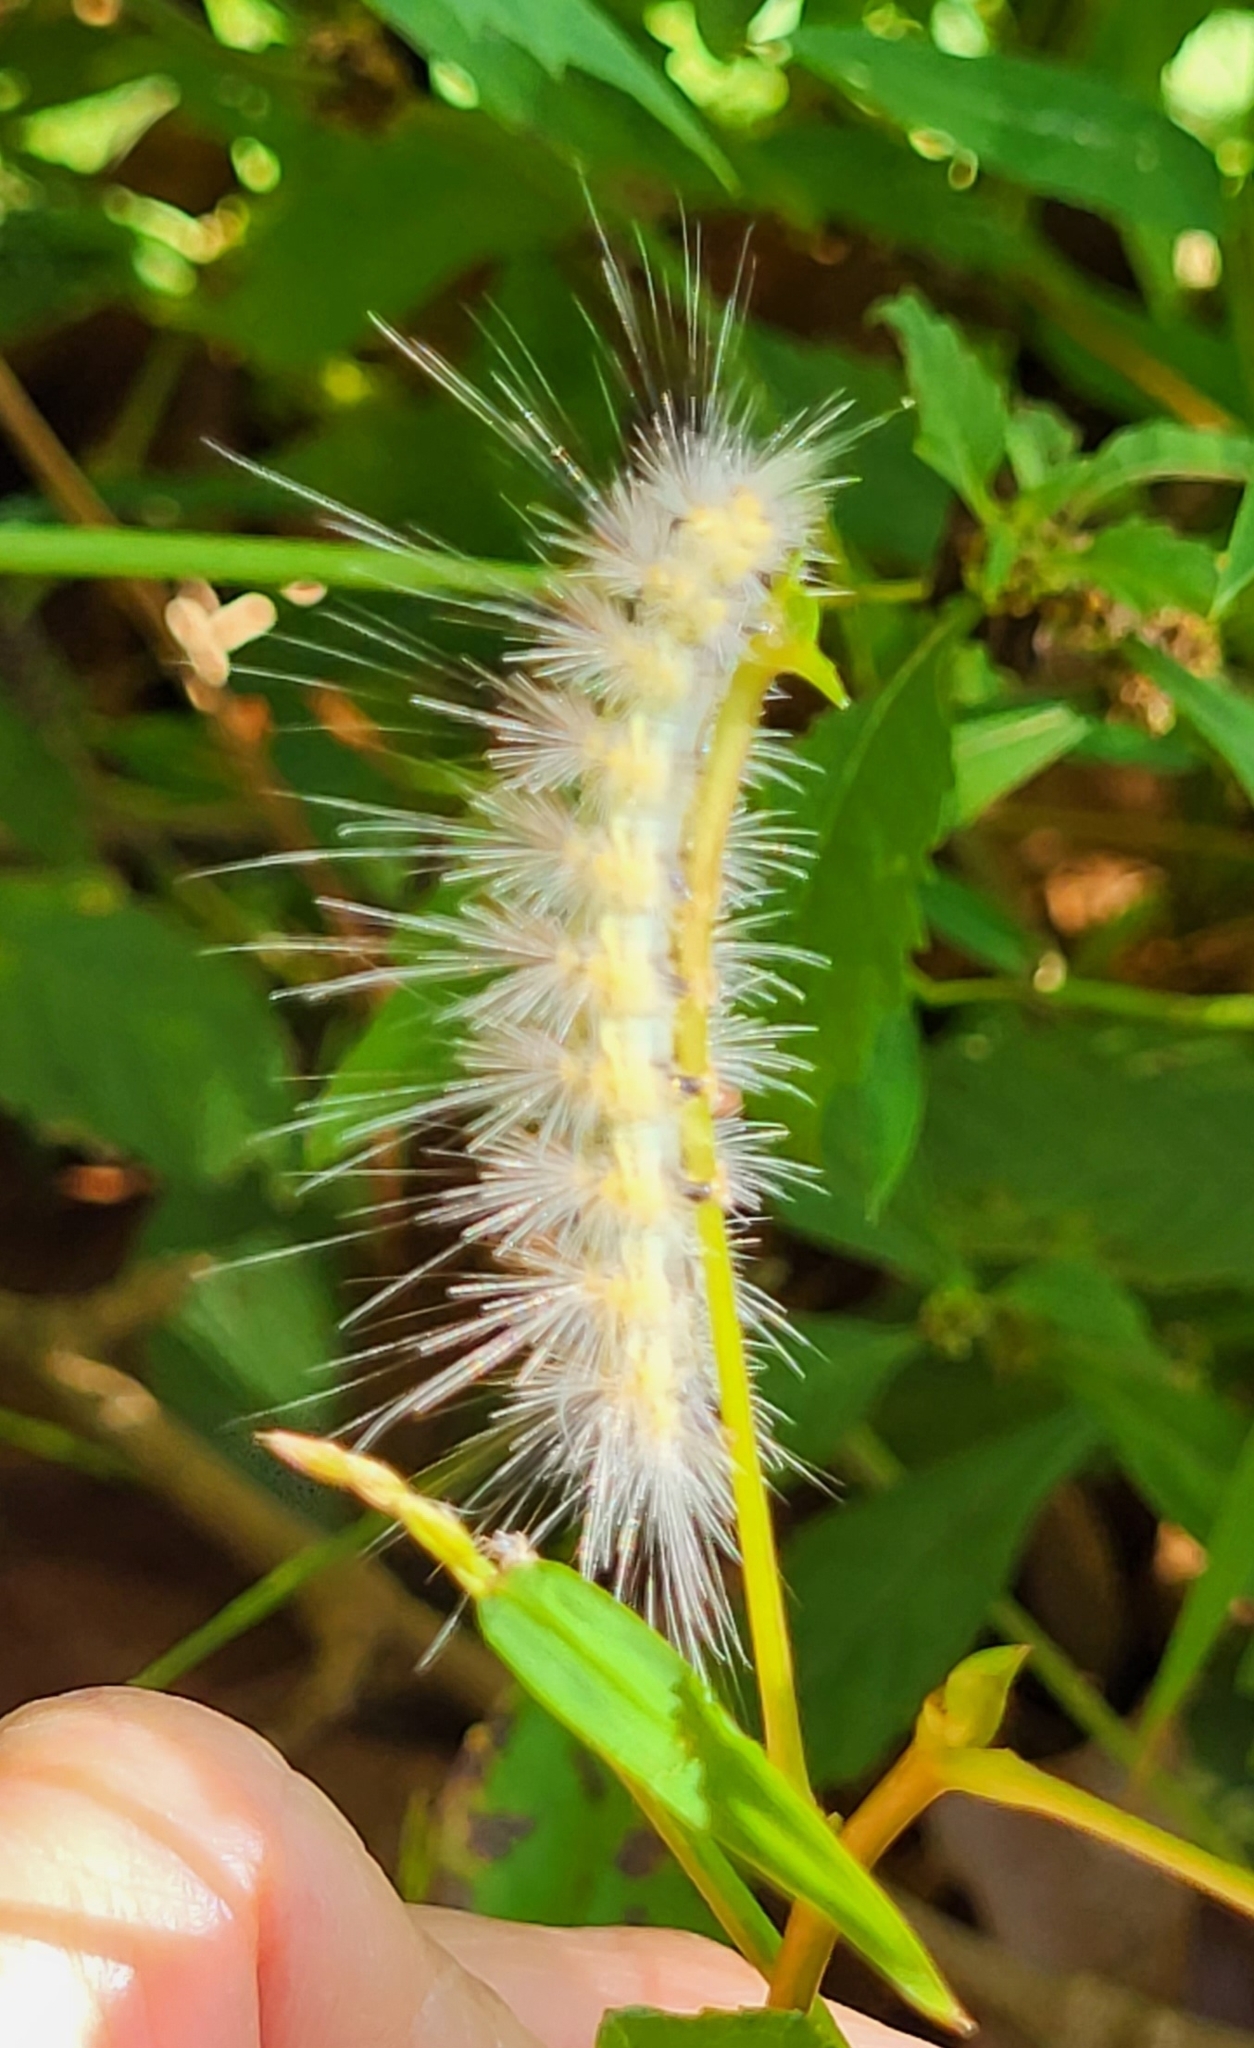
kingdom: Animalia
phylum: Arthropoda
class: Insecta
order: Lepidoptera
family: Erebidae
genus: Hyphantria
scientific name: Hyphantria cunea
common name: American white moth
